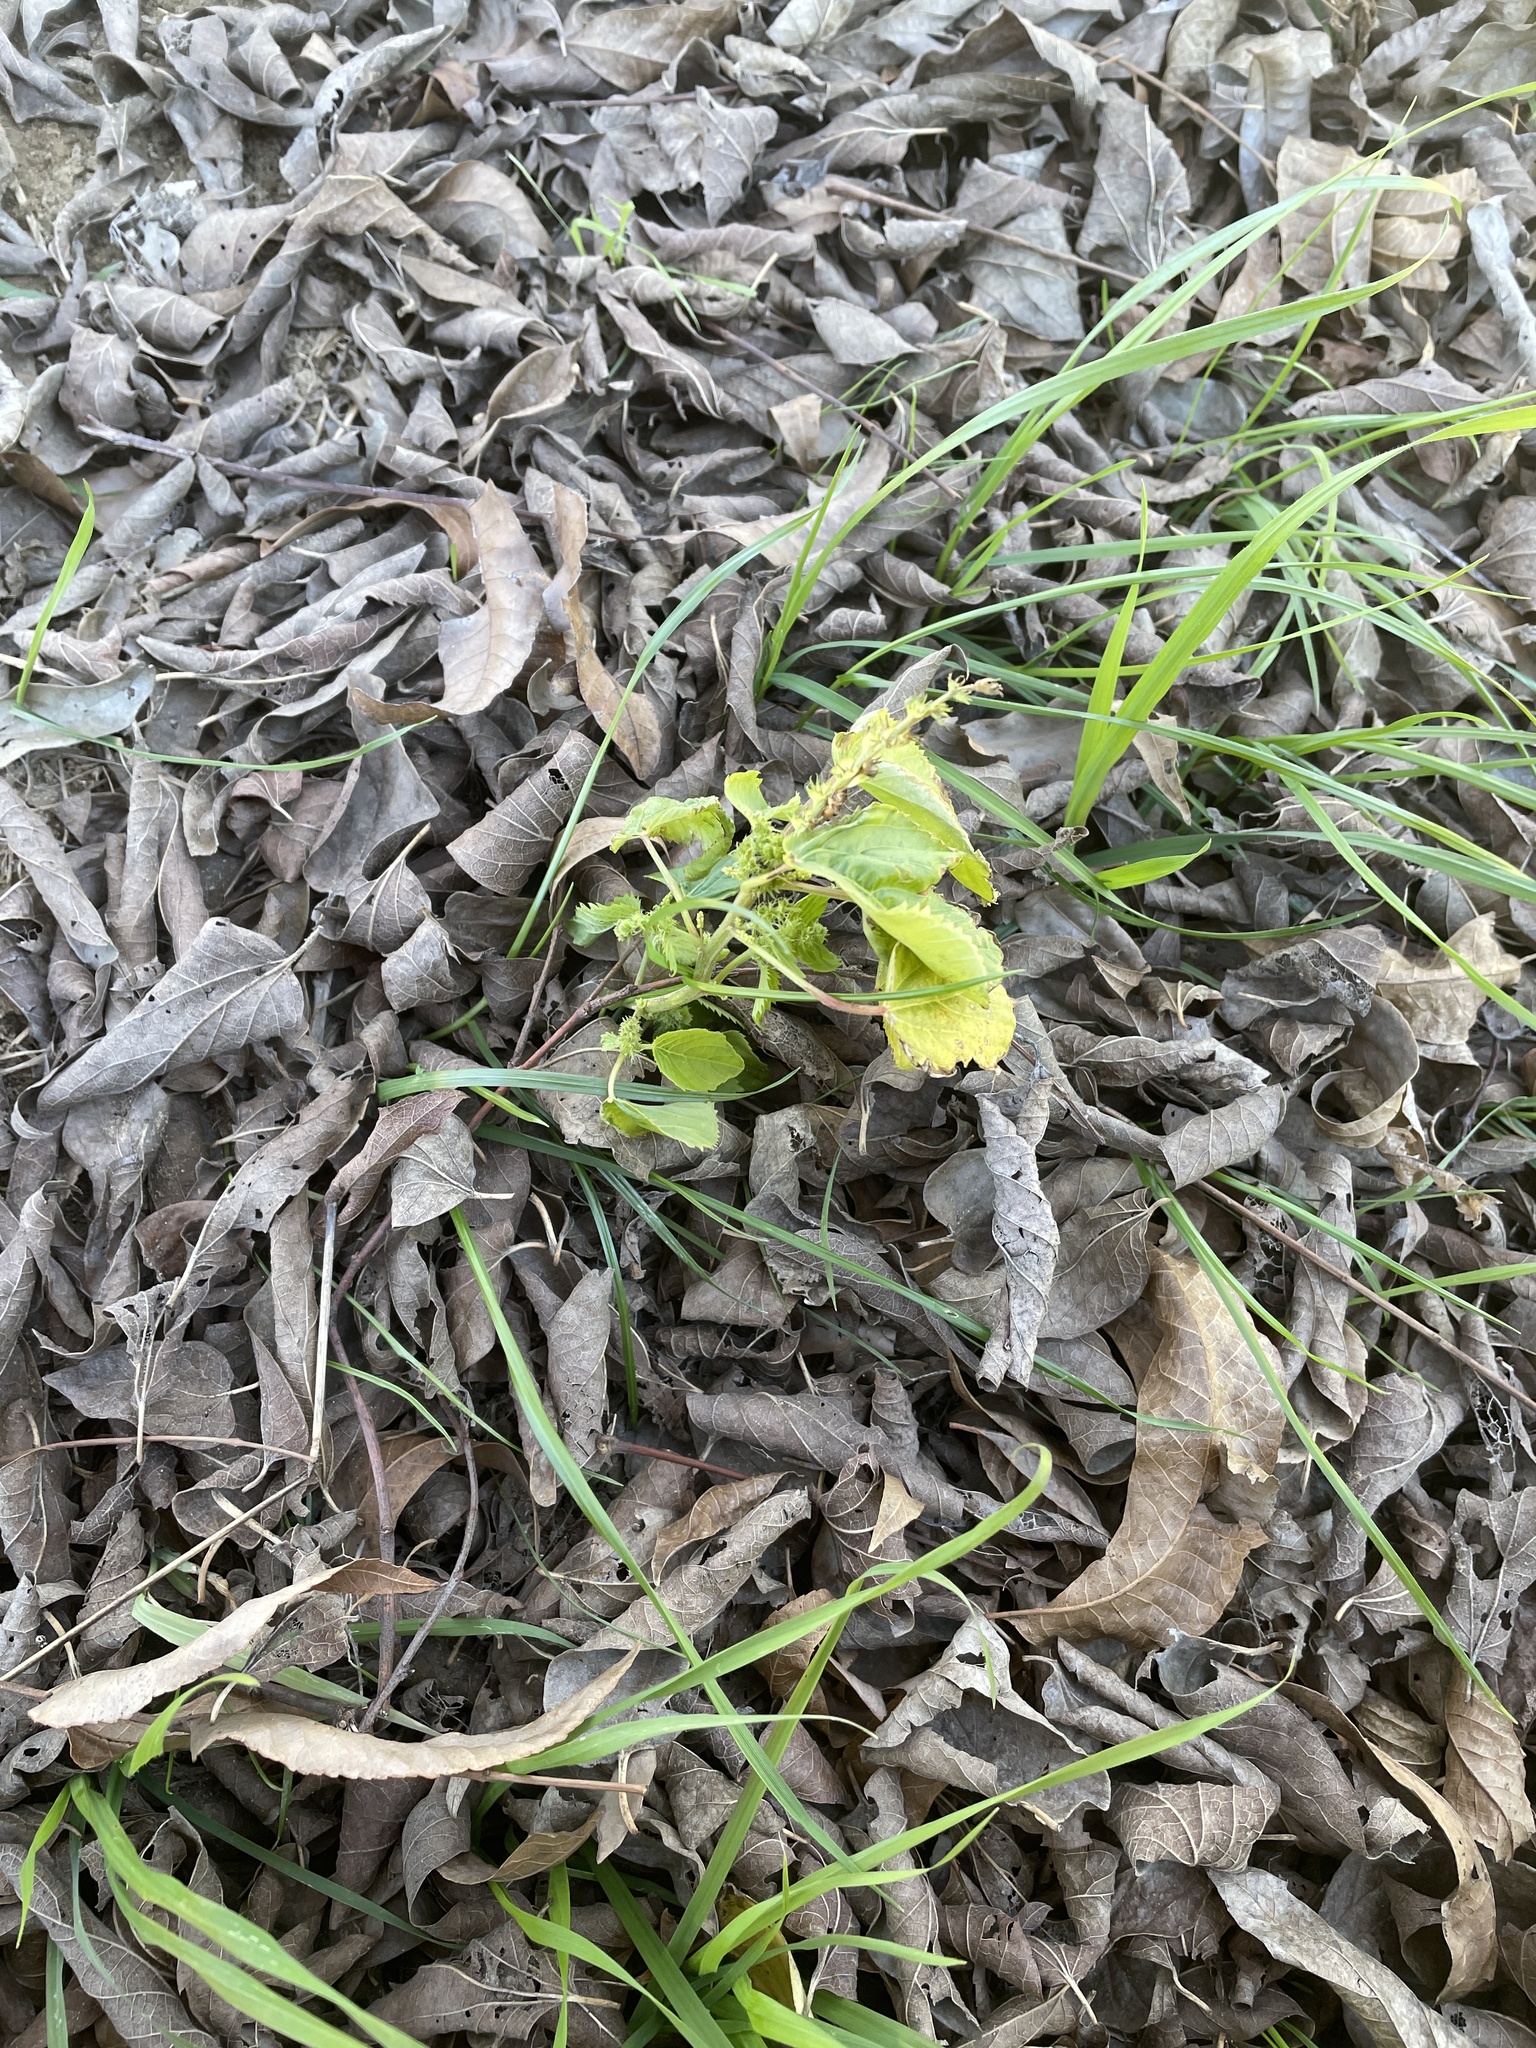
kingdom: Plantae
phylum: Tracheophyta
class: Magnoliopsida
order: Malpighiales
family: Euphorbiaceae
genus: Acalypha
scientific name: Acalypha ostryifolia
